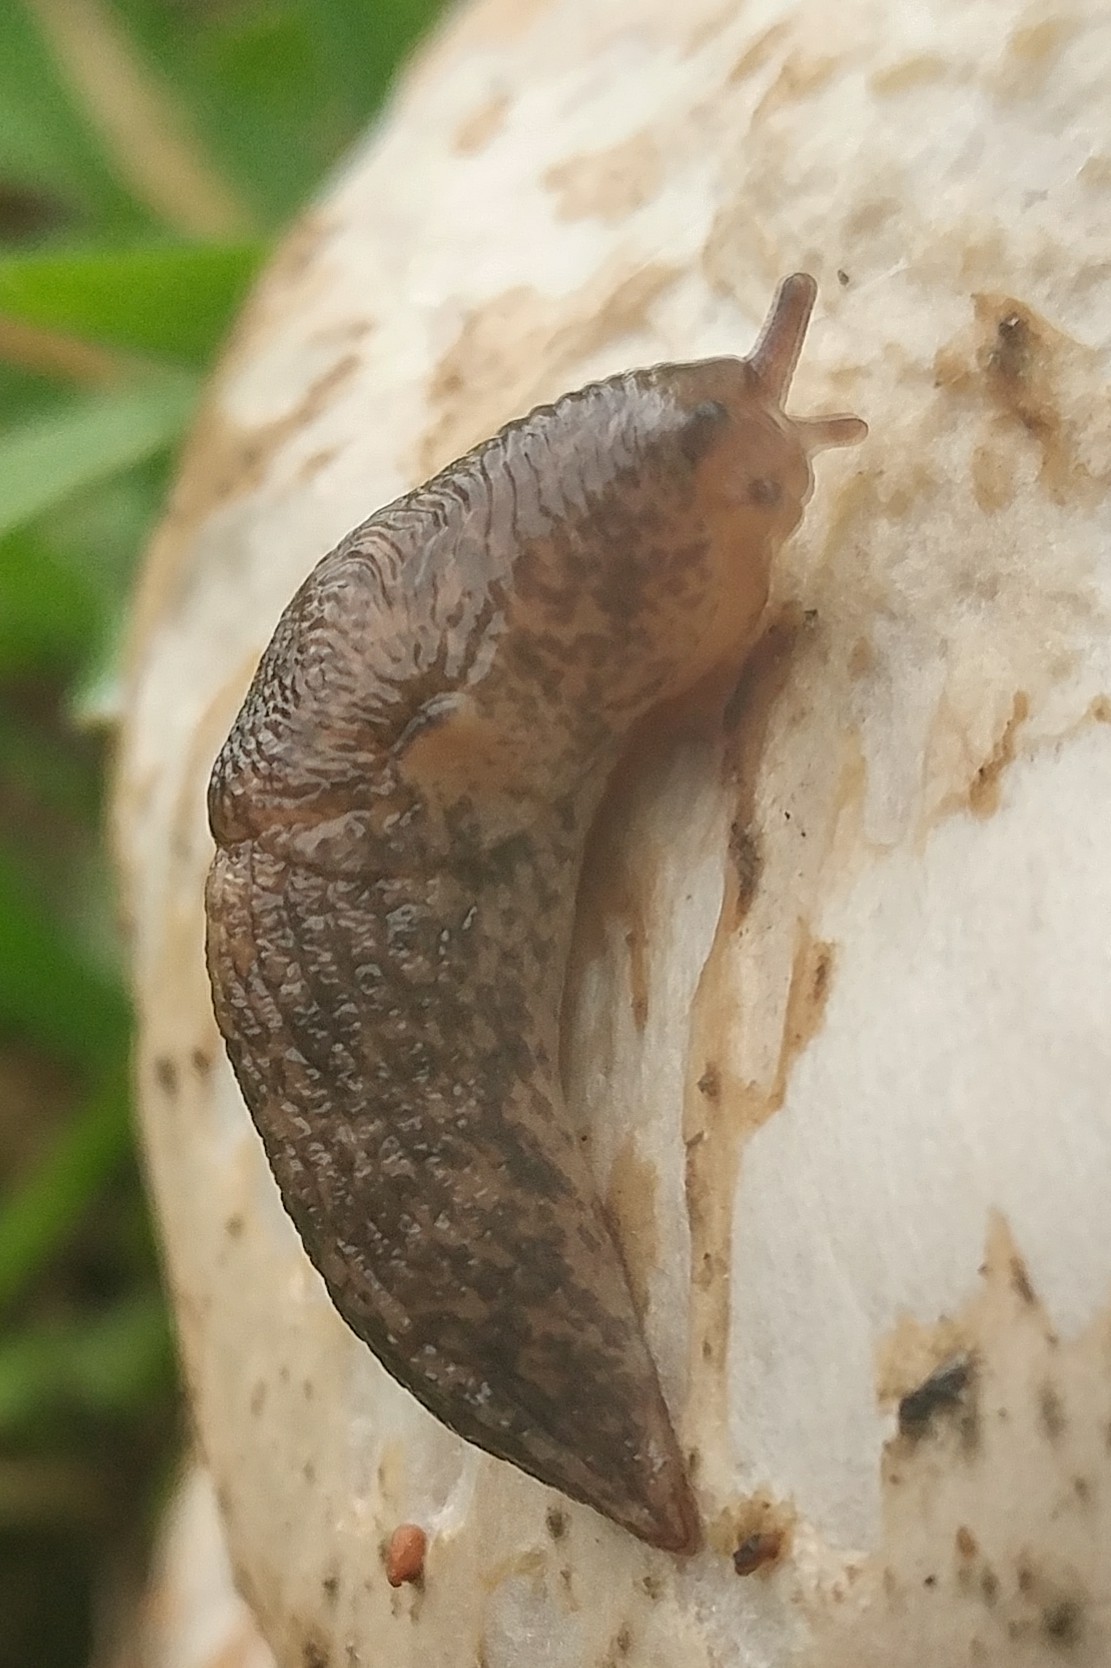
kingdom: Animalia
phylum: Mollusca
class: Gastropoda
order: Stylommatophora
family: Agriolimacidae
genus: Deroceras
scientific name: Deroceras reticulatum
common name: Gray field slug
